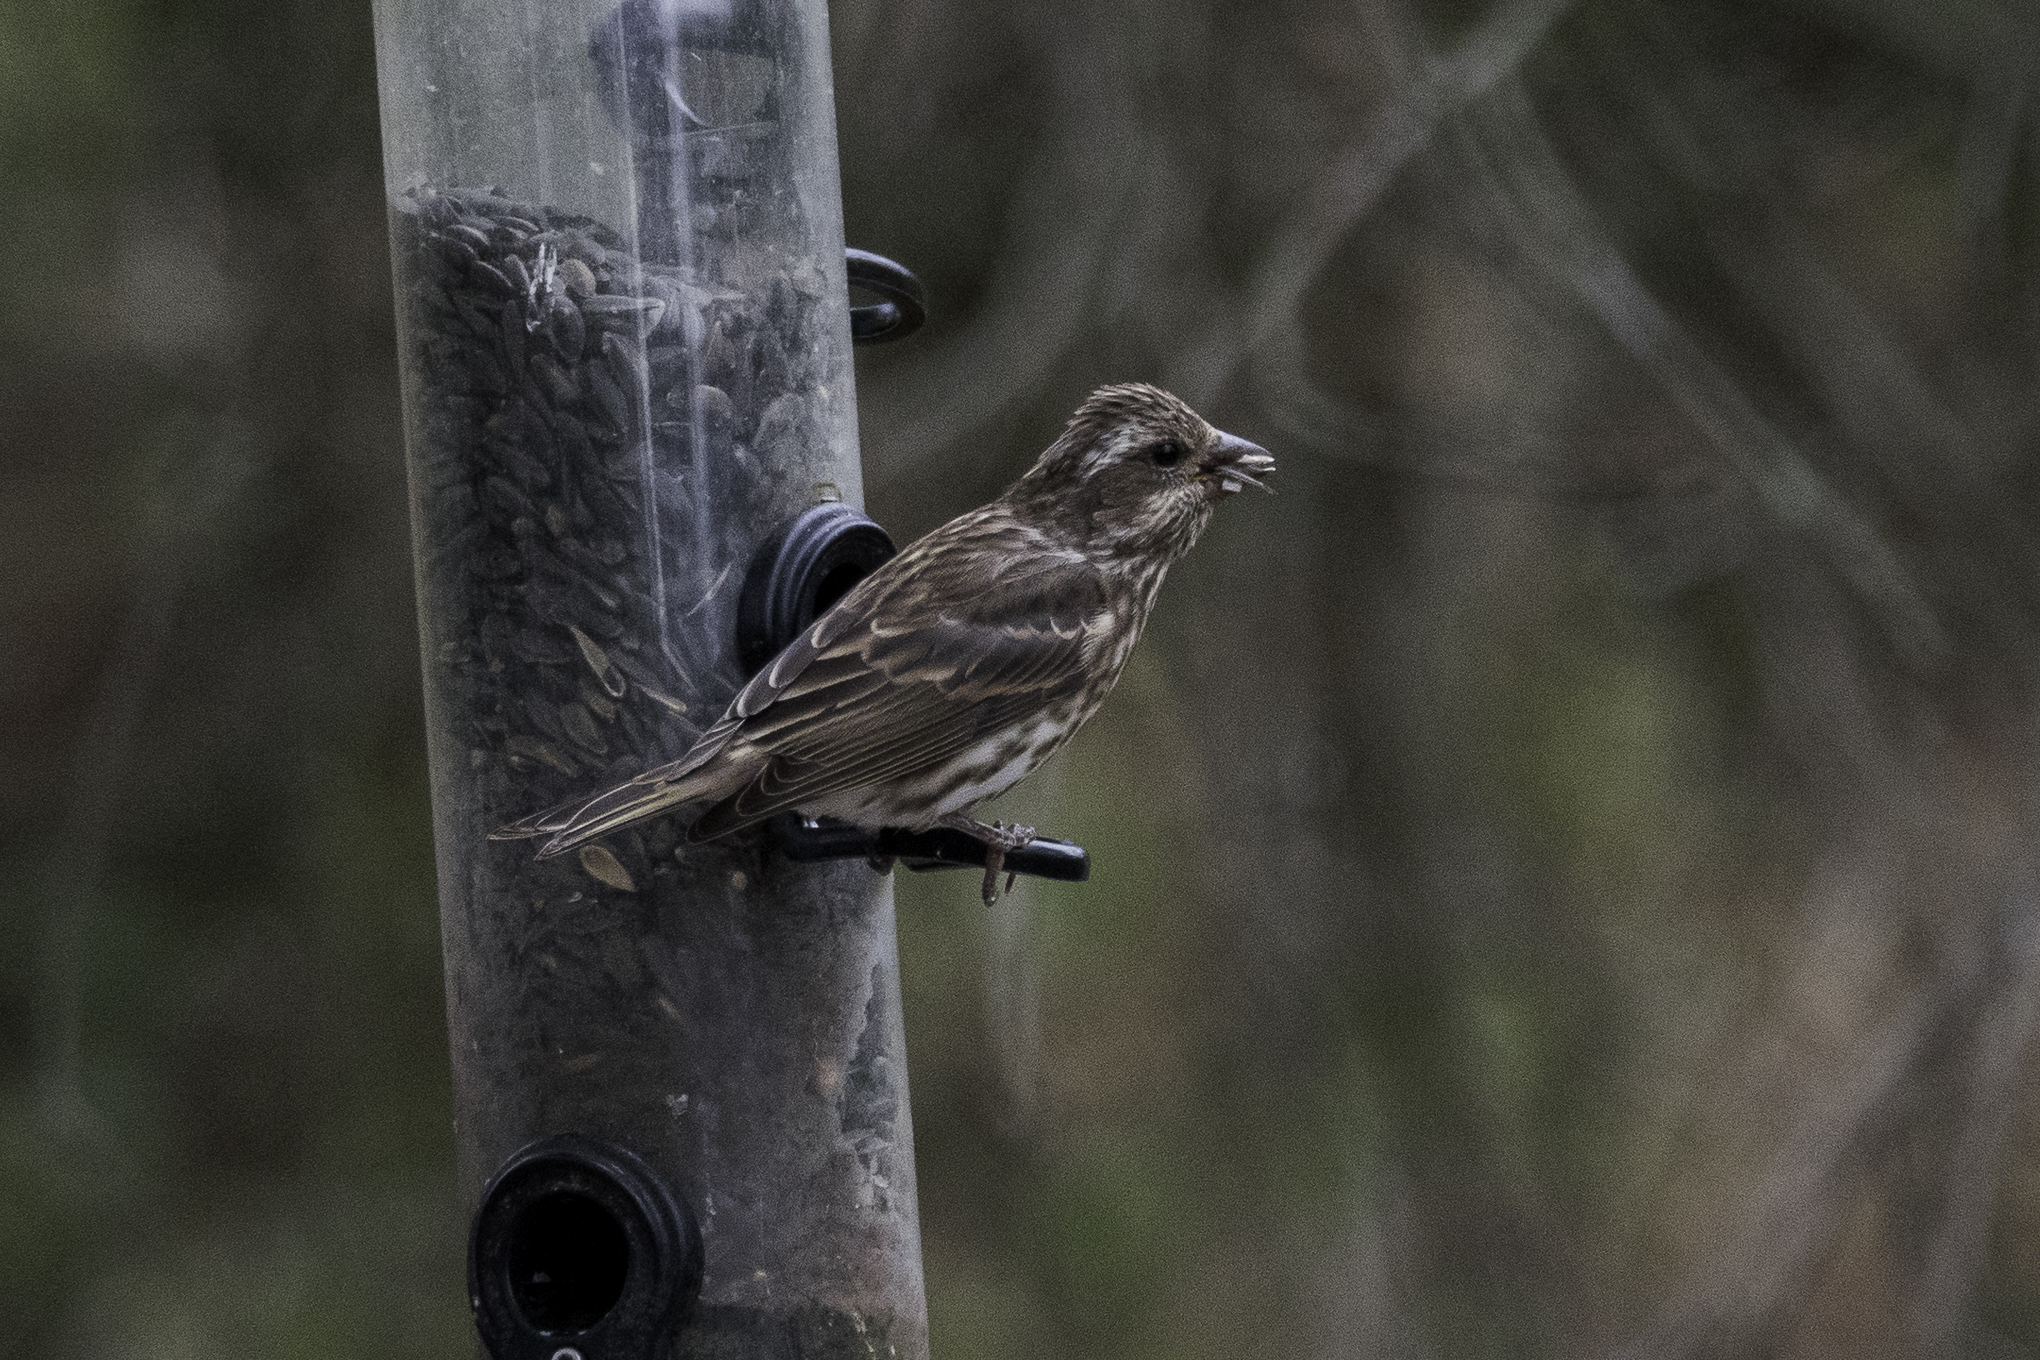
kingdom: Animalia
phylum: Chordata
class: Aves
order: Passeriformes
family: Fringillidae
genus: Haemorhous
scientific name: Haemorhous purpureus
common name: Purple finch
